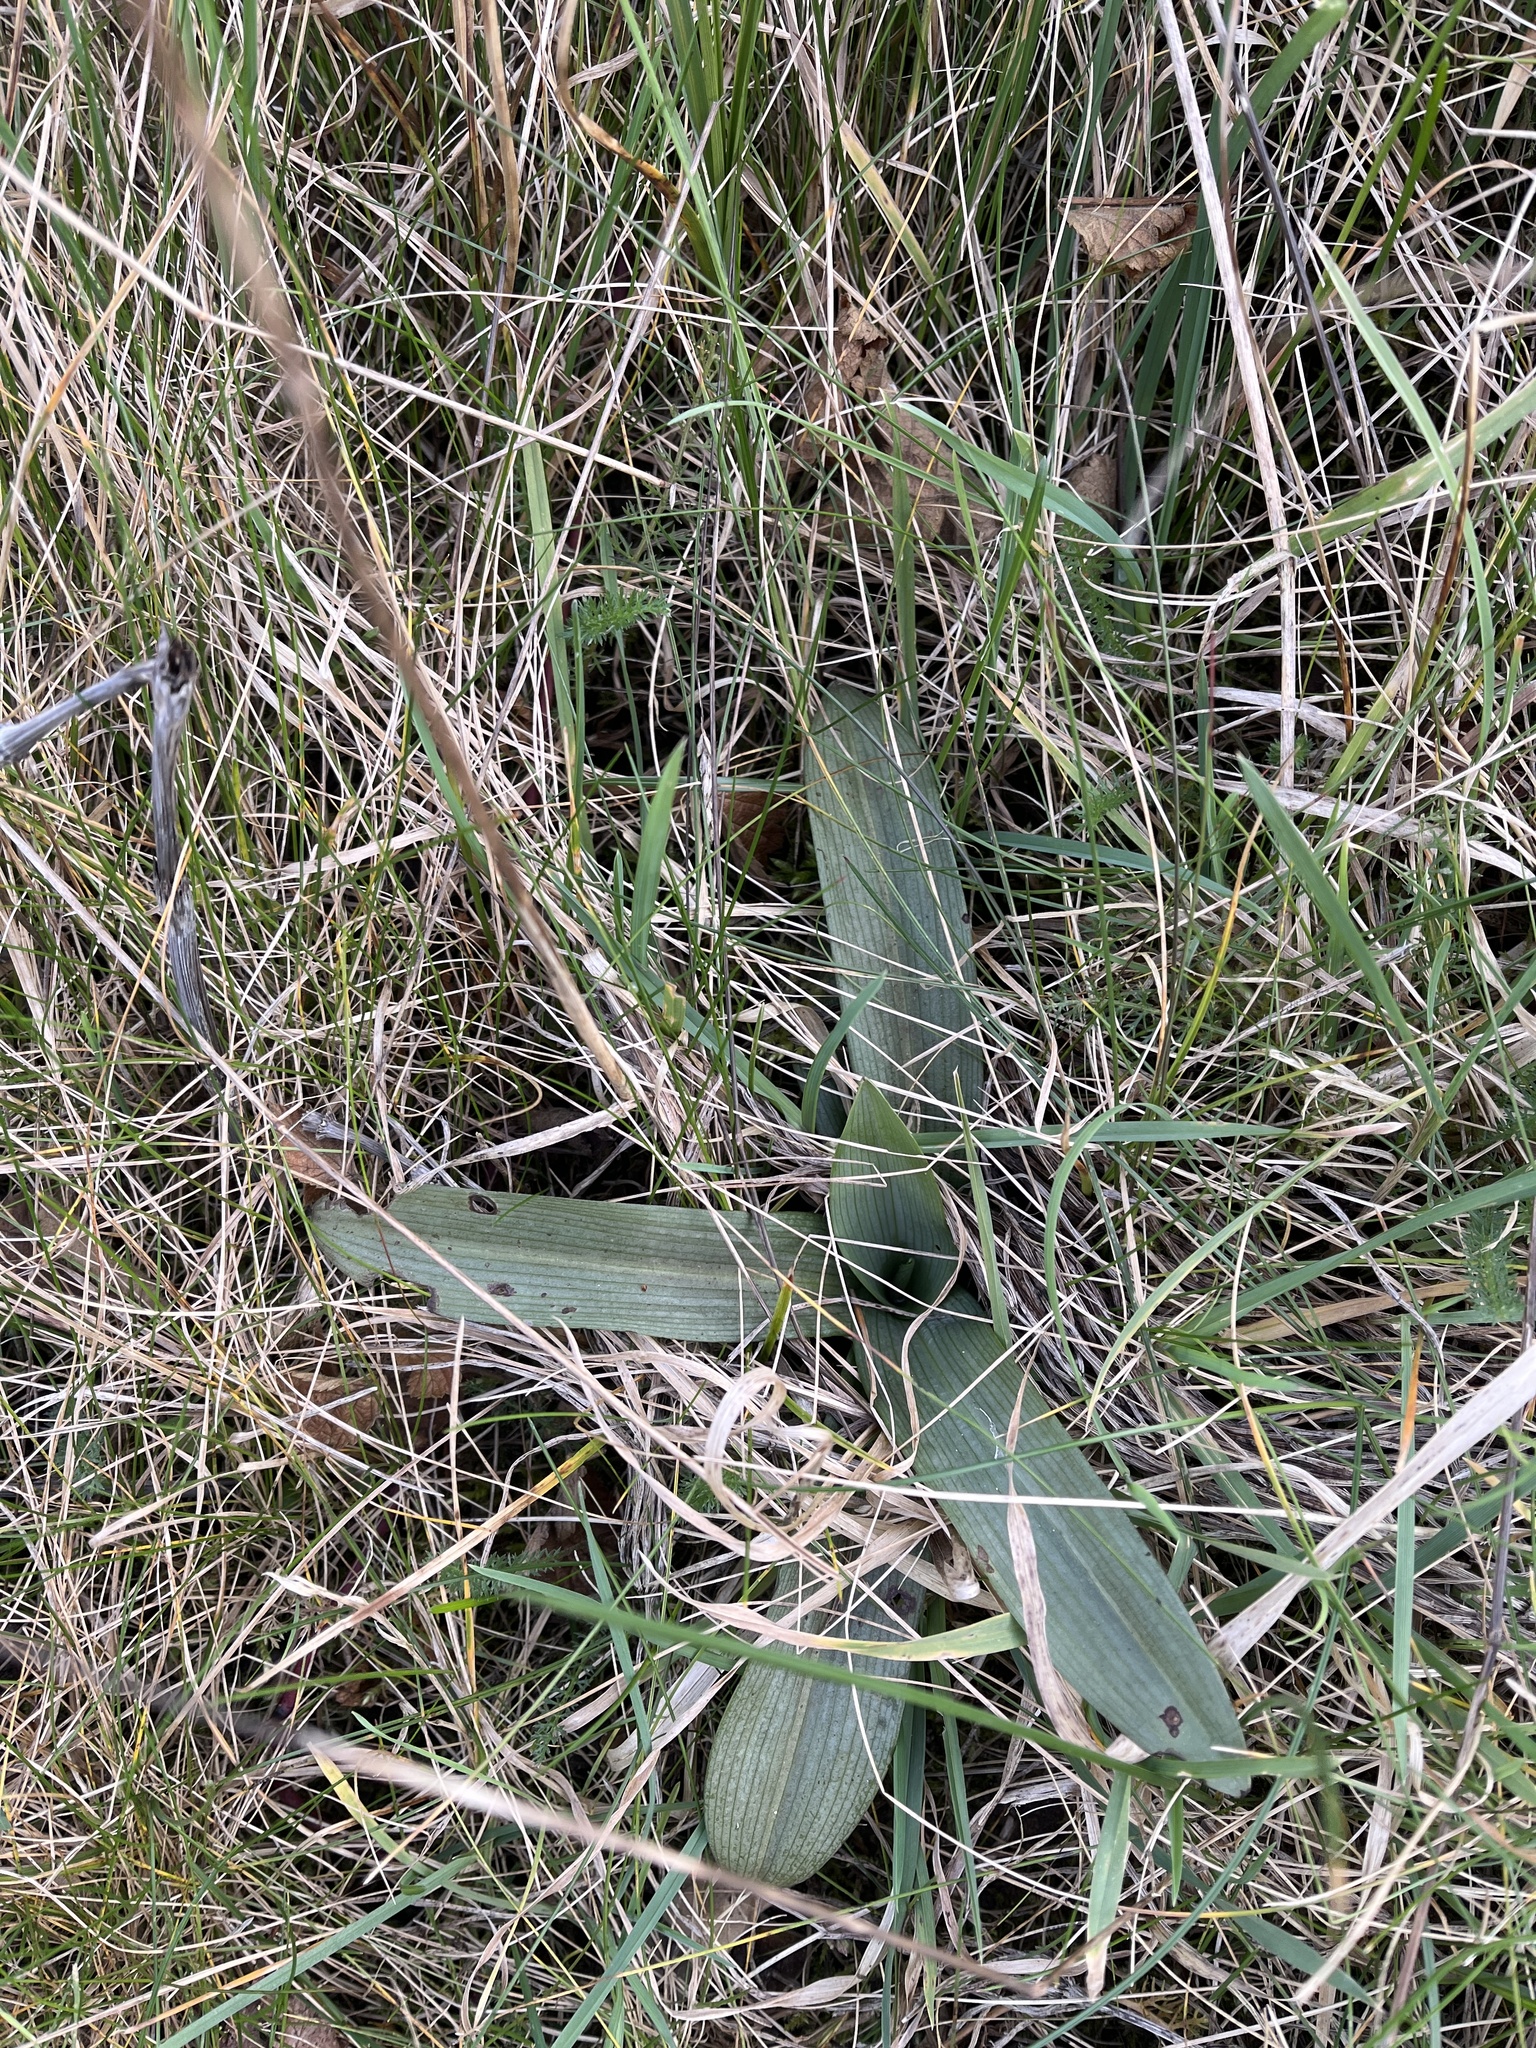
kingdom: Plantae
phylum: Tracheophyta
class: Liliopsida
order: Asparagales
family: Orchidaceae
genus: Ophrys
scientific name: Ophrys apifera
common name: Bee orchid
